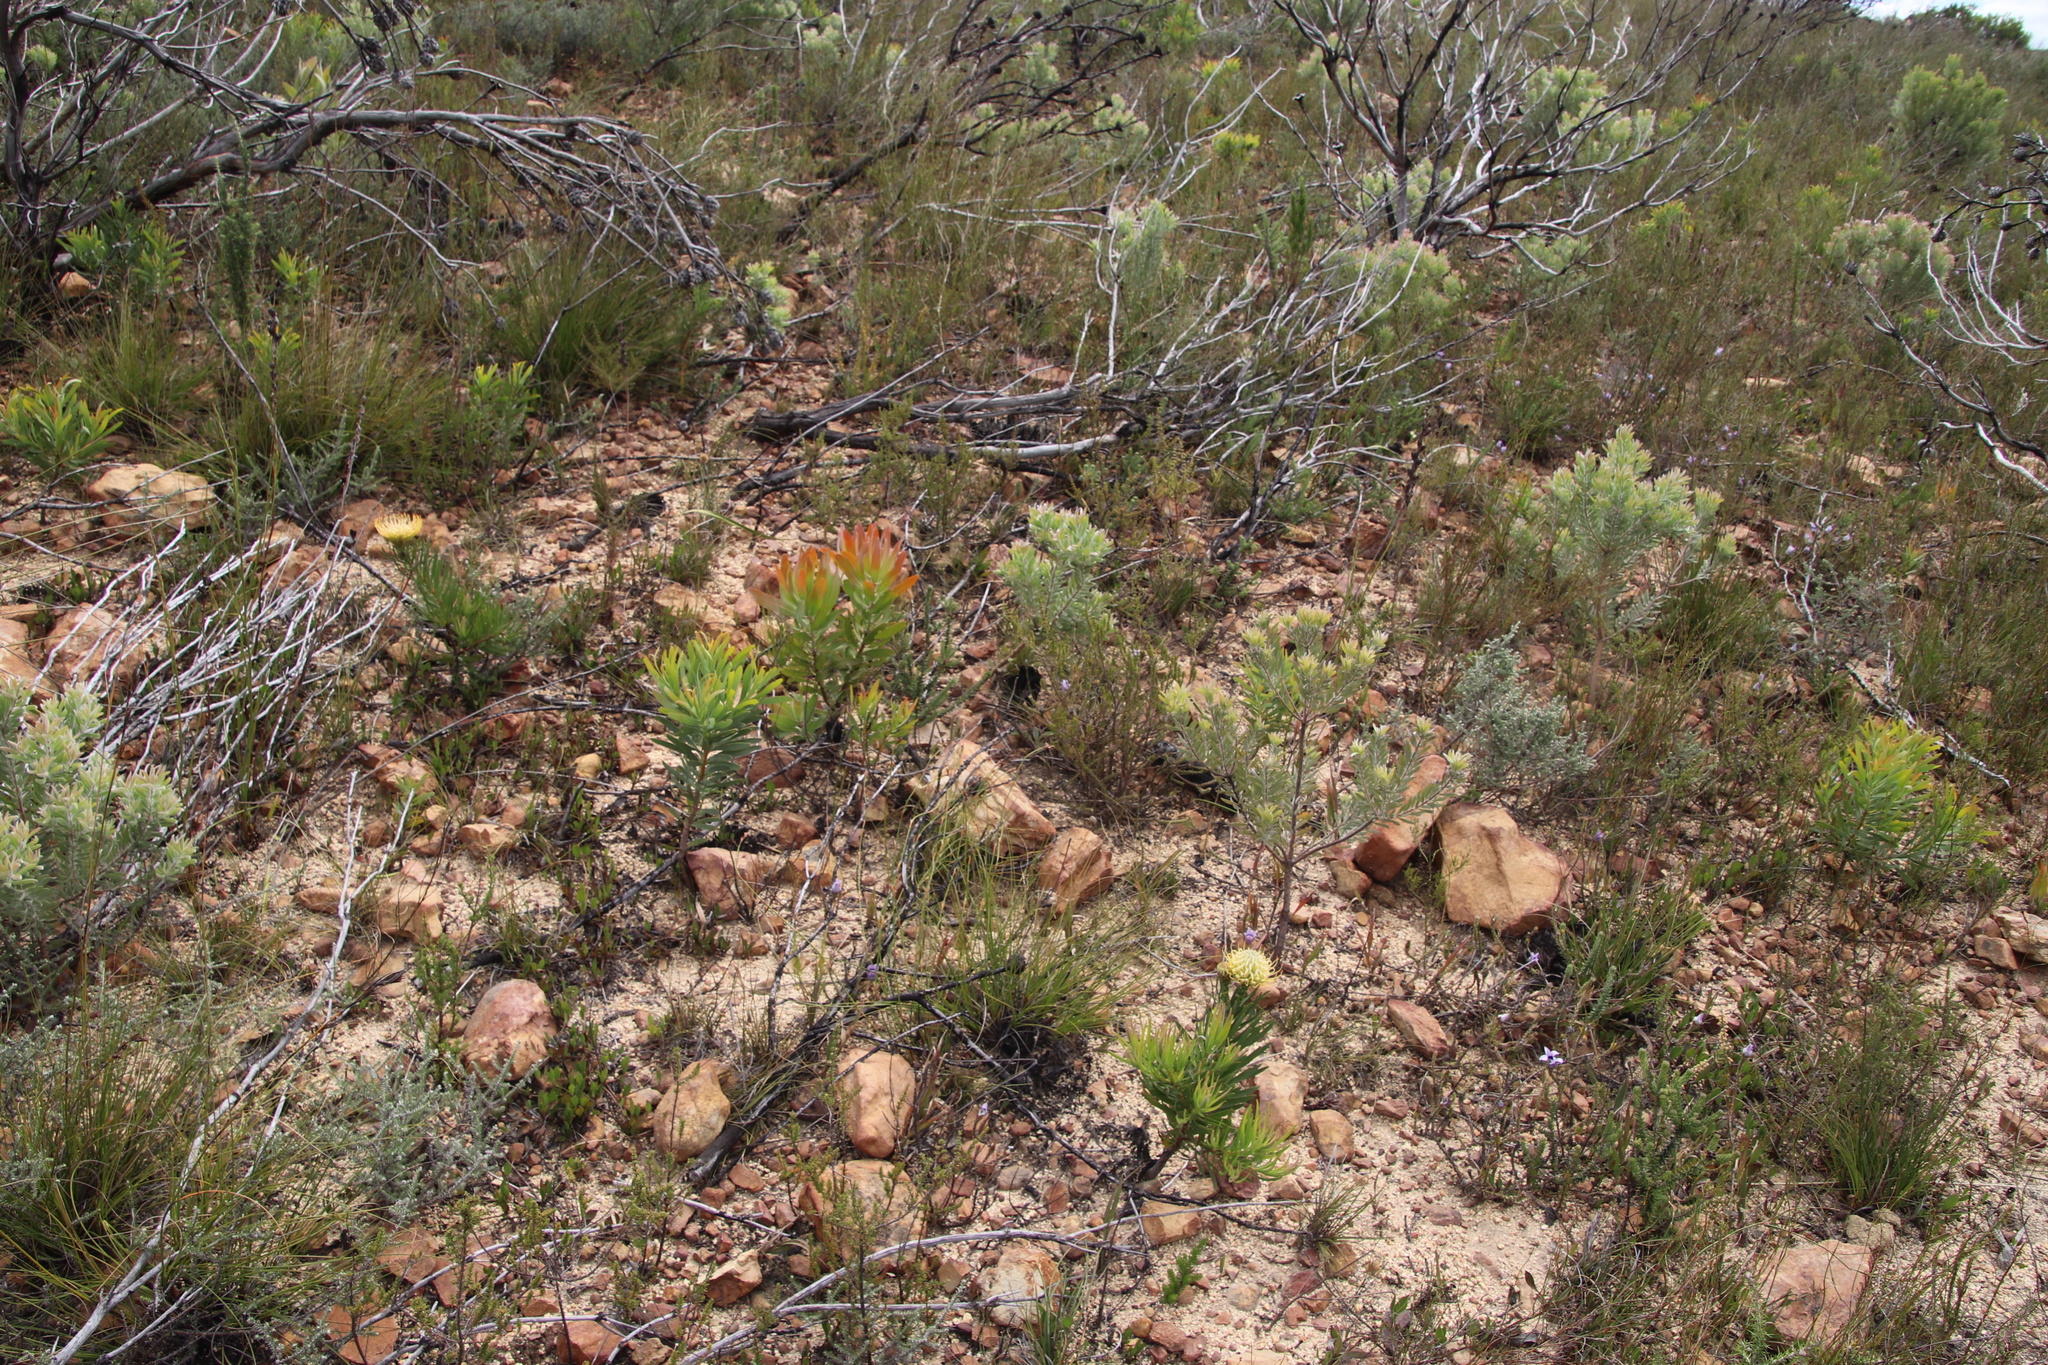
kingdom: Plantae
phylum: Tracheophyta
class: Magnoliopsida
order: Proteales
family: Proteaceae
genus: Protea
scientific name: Protea laurifolia
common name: Grey-leaf sugarbsh
